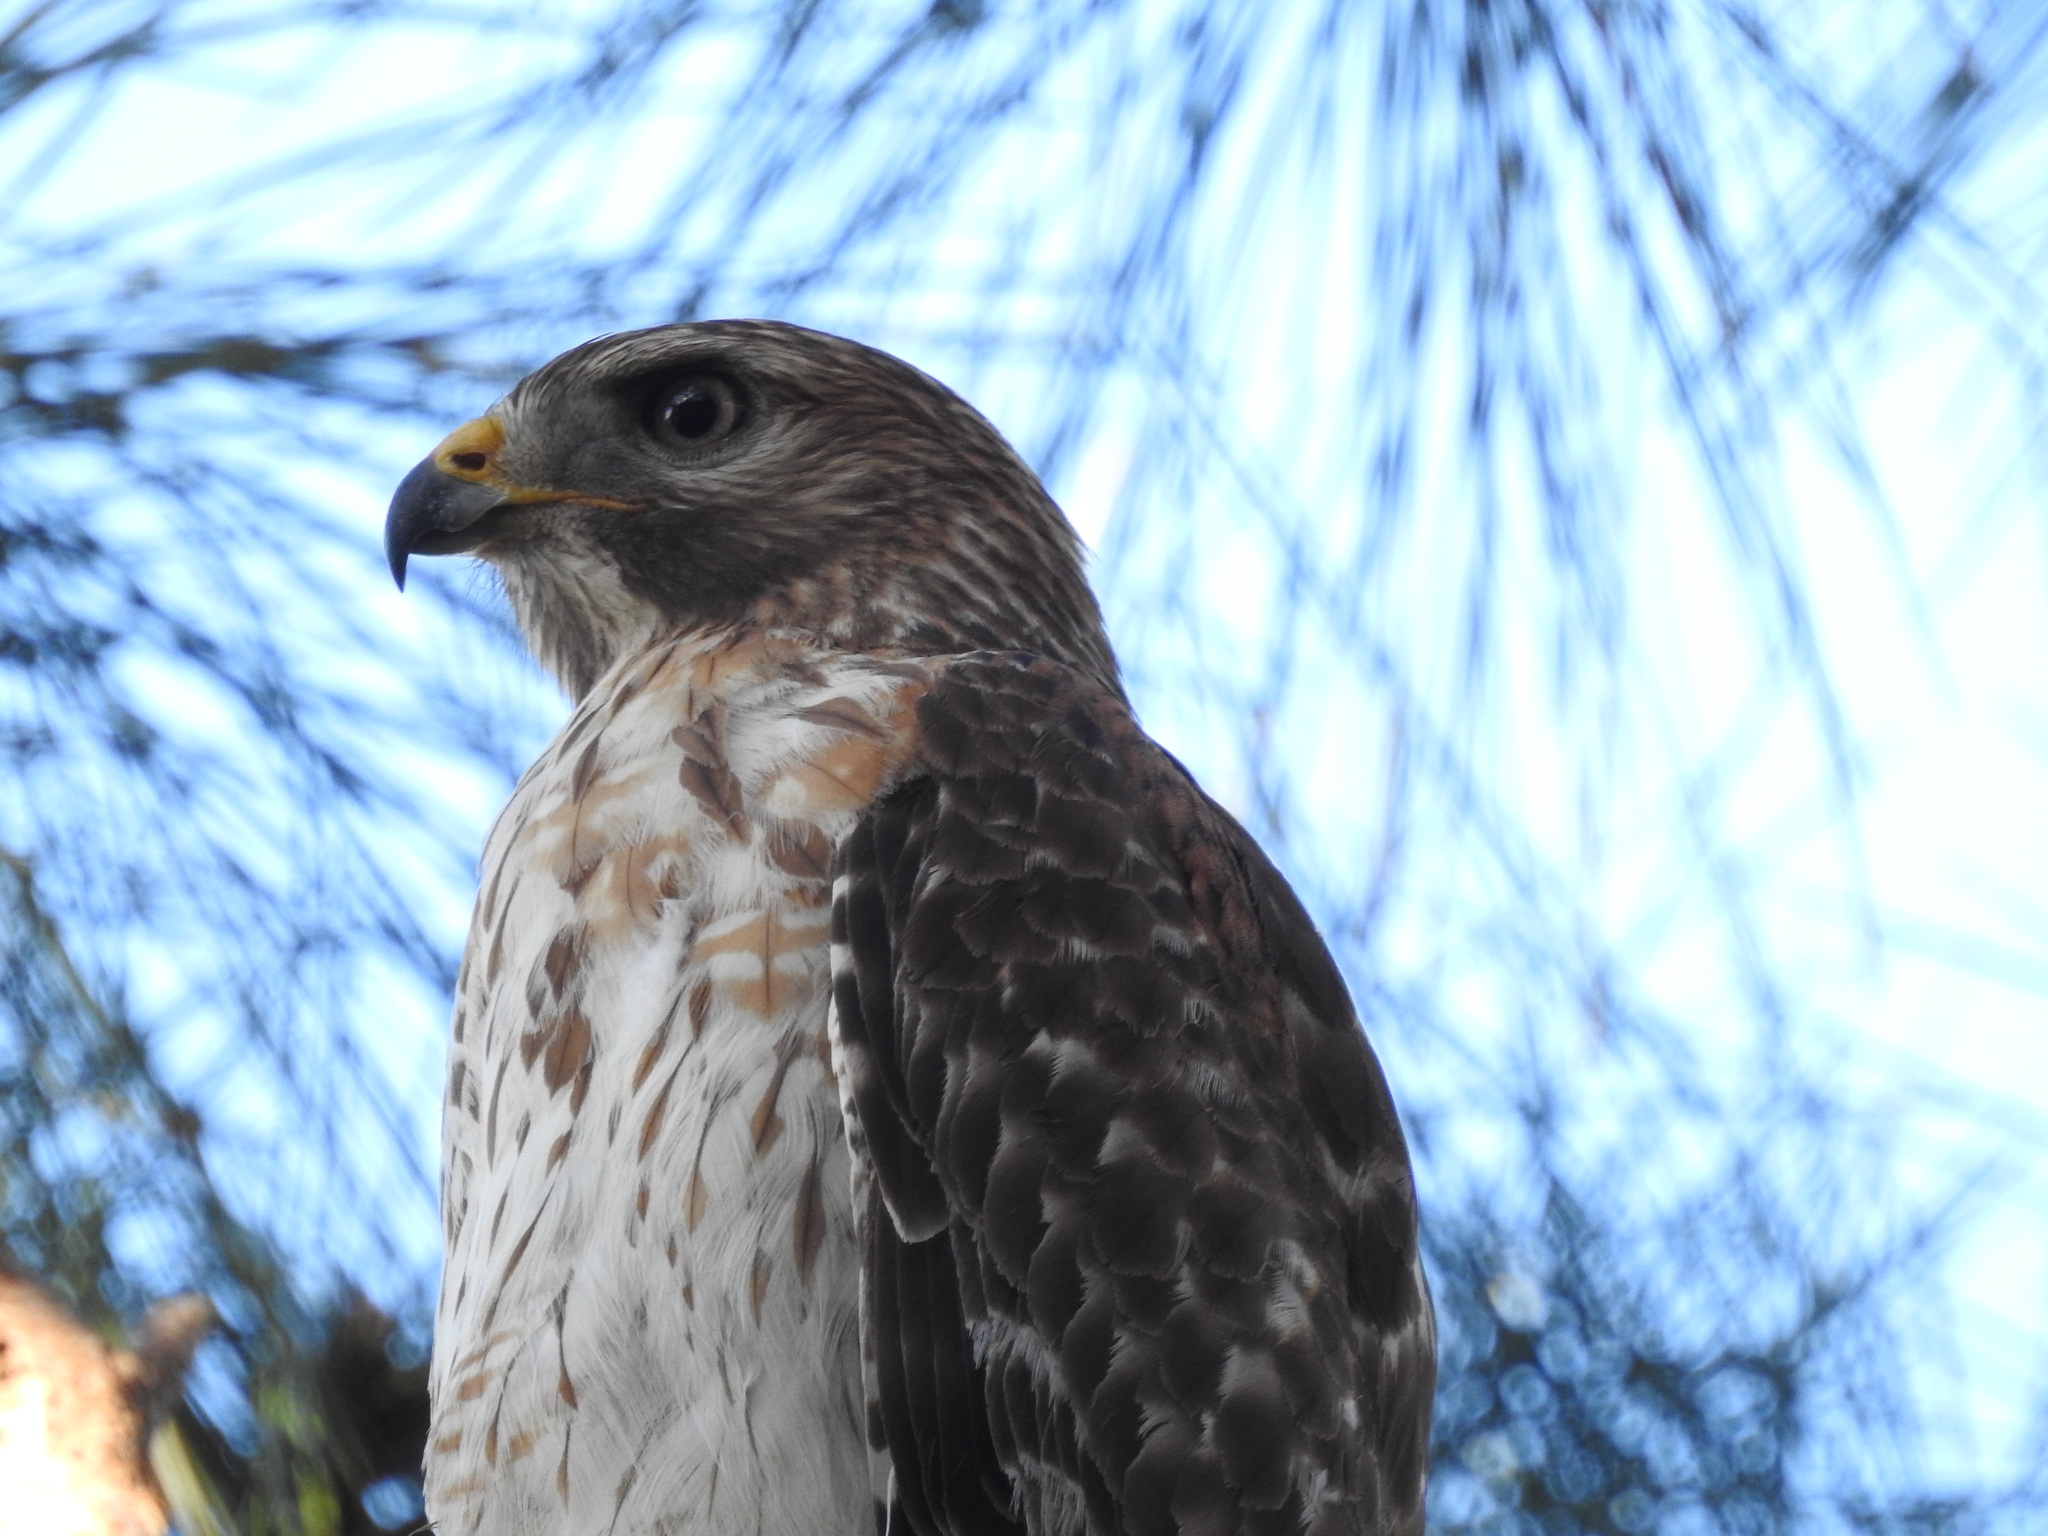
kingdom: Animalia
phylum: Chordata
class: Aves
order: Accipitriformes
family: Accipitridae
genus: Buteo
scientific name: Buteo lineatus
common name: Red-shouldered hawk
